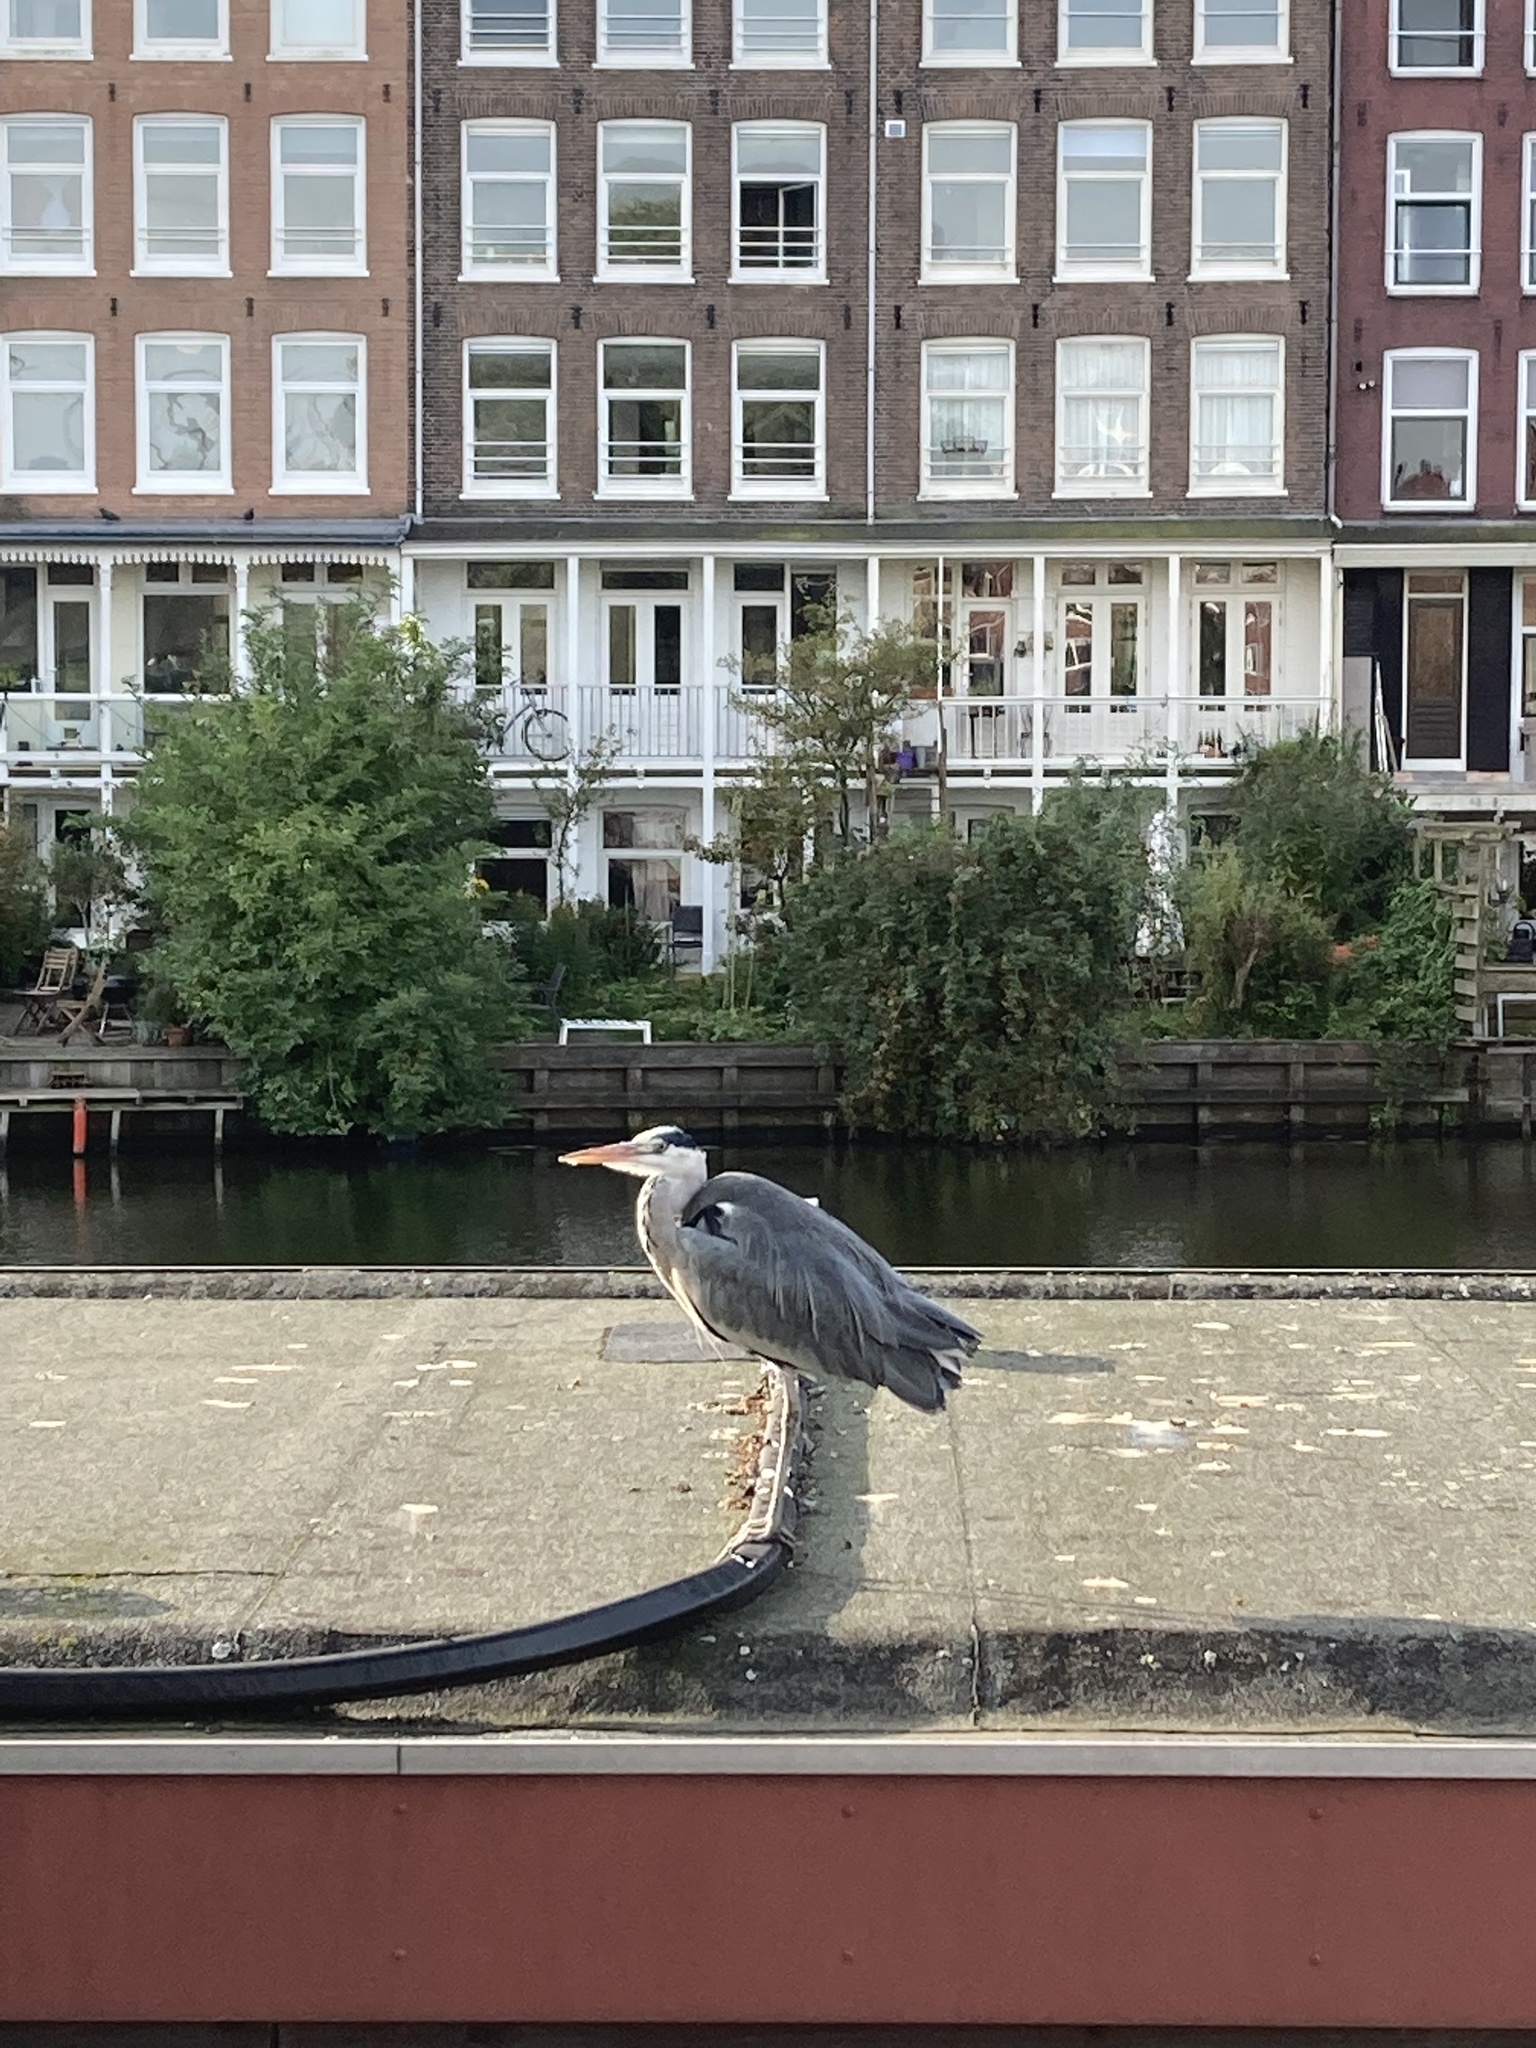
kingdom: Animalia
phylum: Chordata
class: Aves
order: Pelecaniformes
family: Ardeidae
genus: Ardea
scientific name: Ardea cinerea
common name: Grey heron
